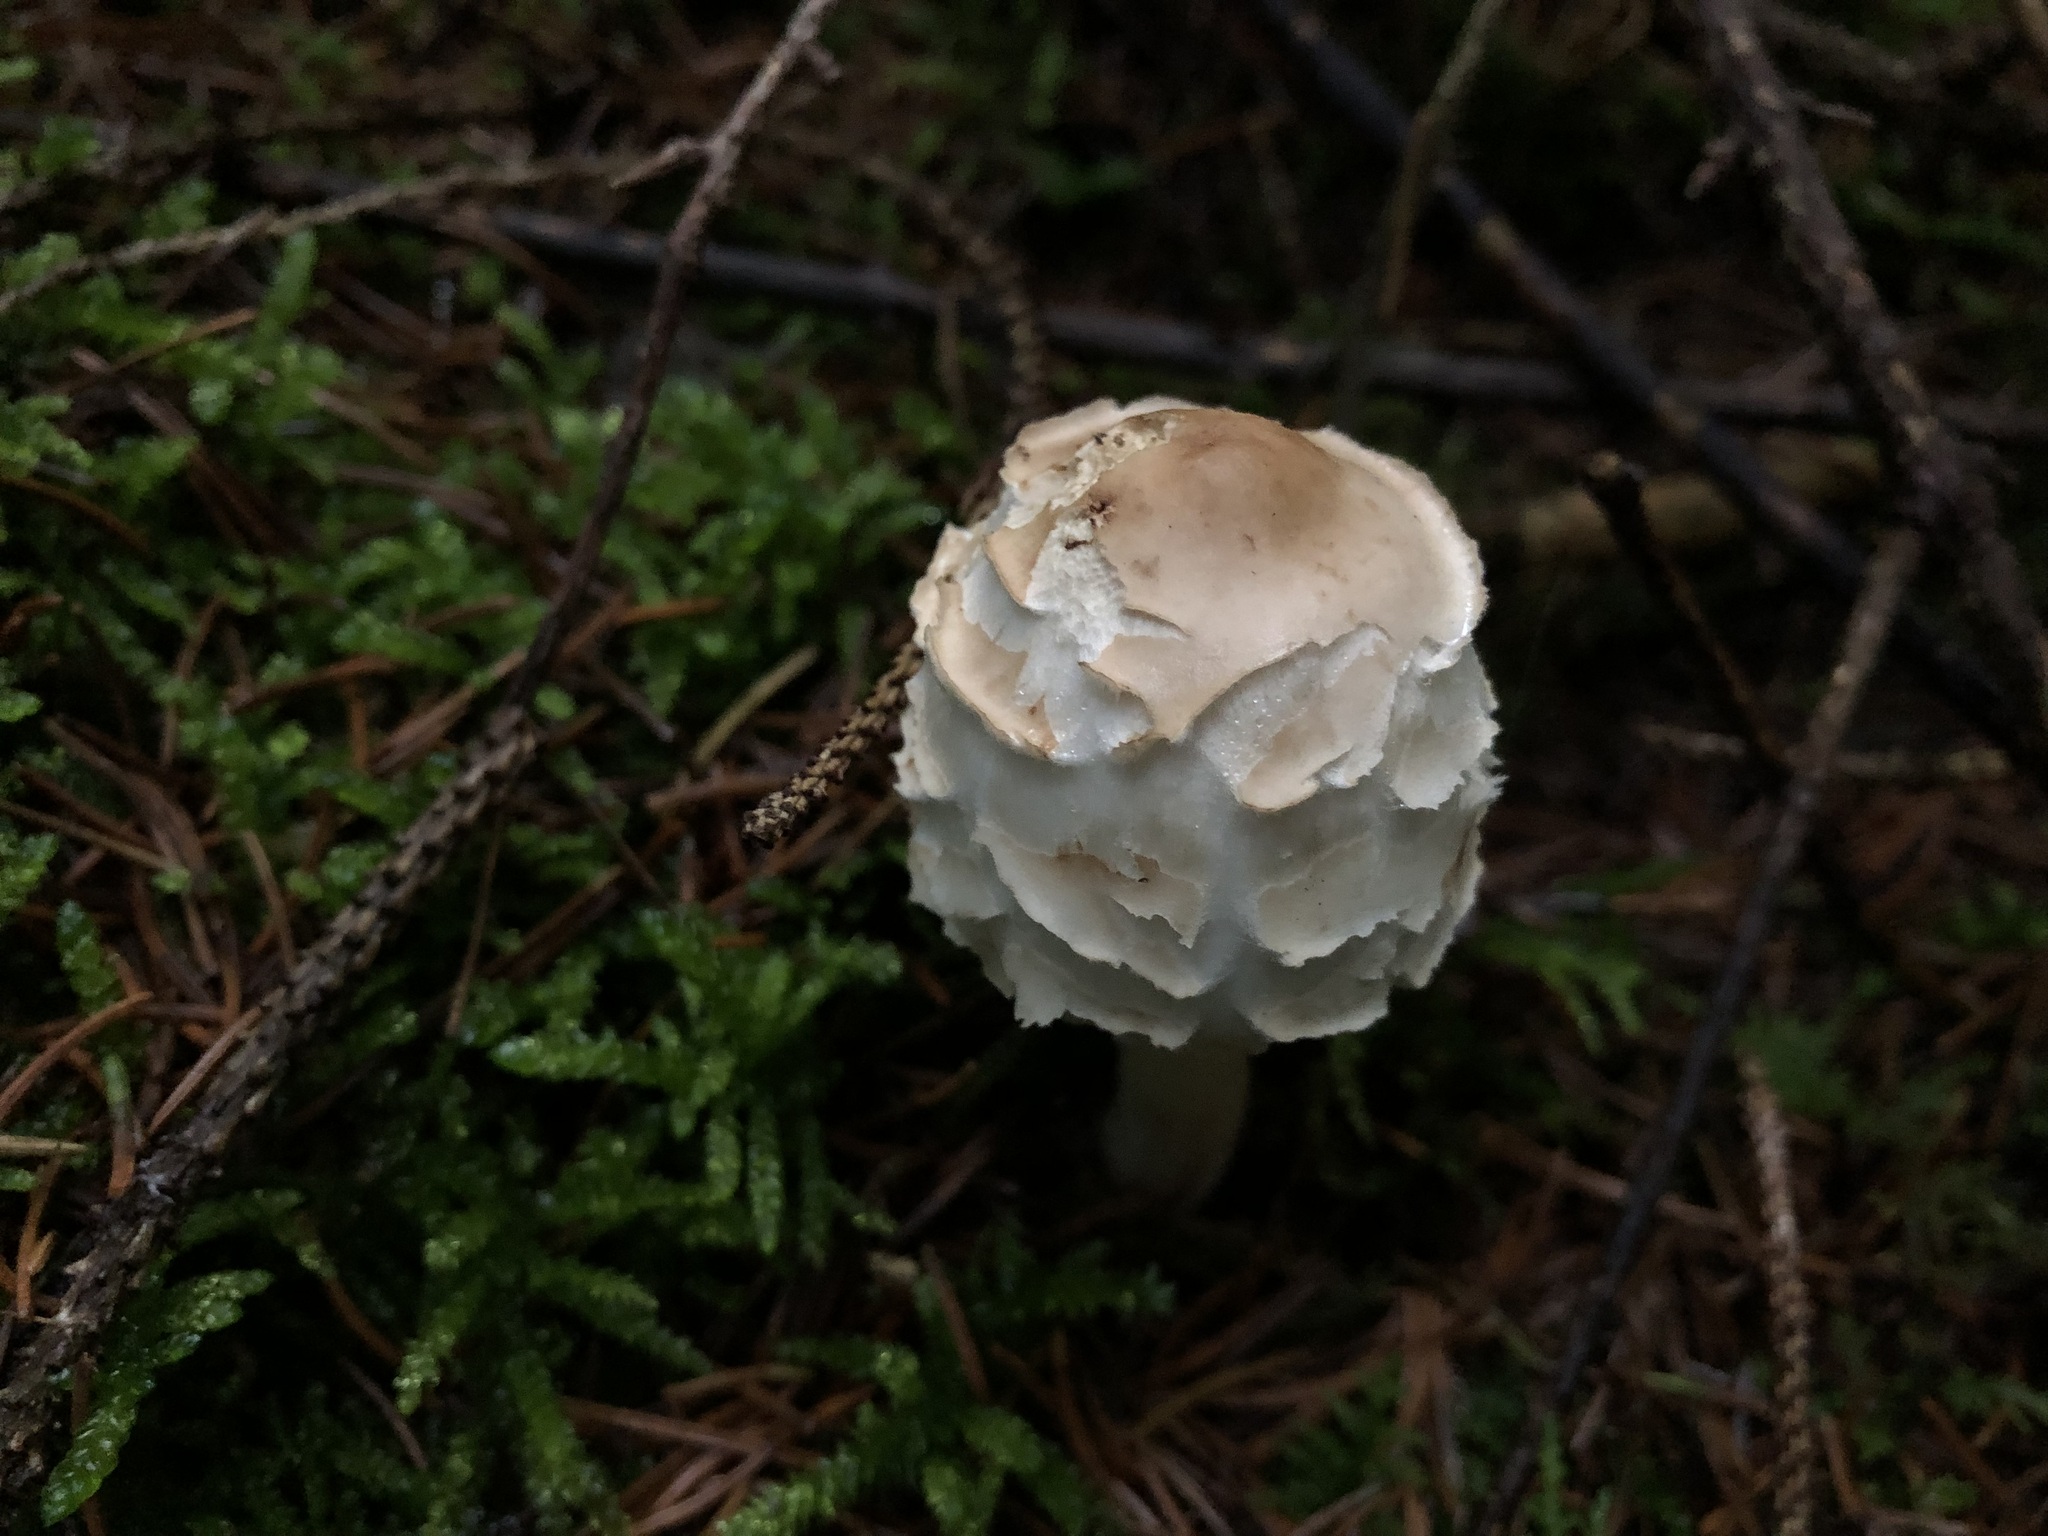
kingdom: Fungi
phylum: Basidiomycota
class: Agaricomycetes
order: Agaricales
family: Agaricaceae
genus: Chlorophyllum
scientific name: Chlorophyllum rhacodes
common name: Shaggy parasol
